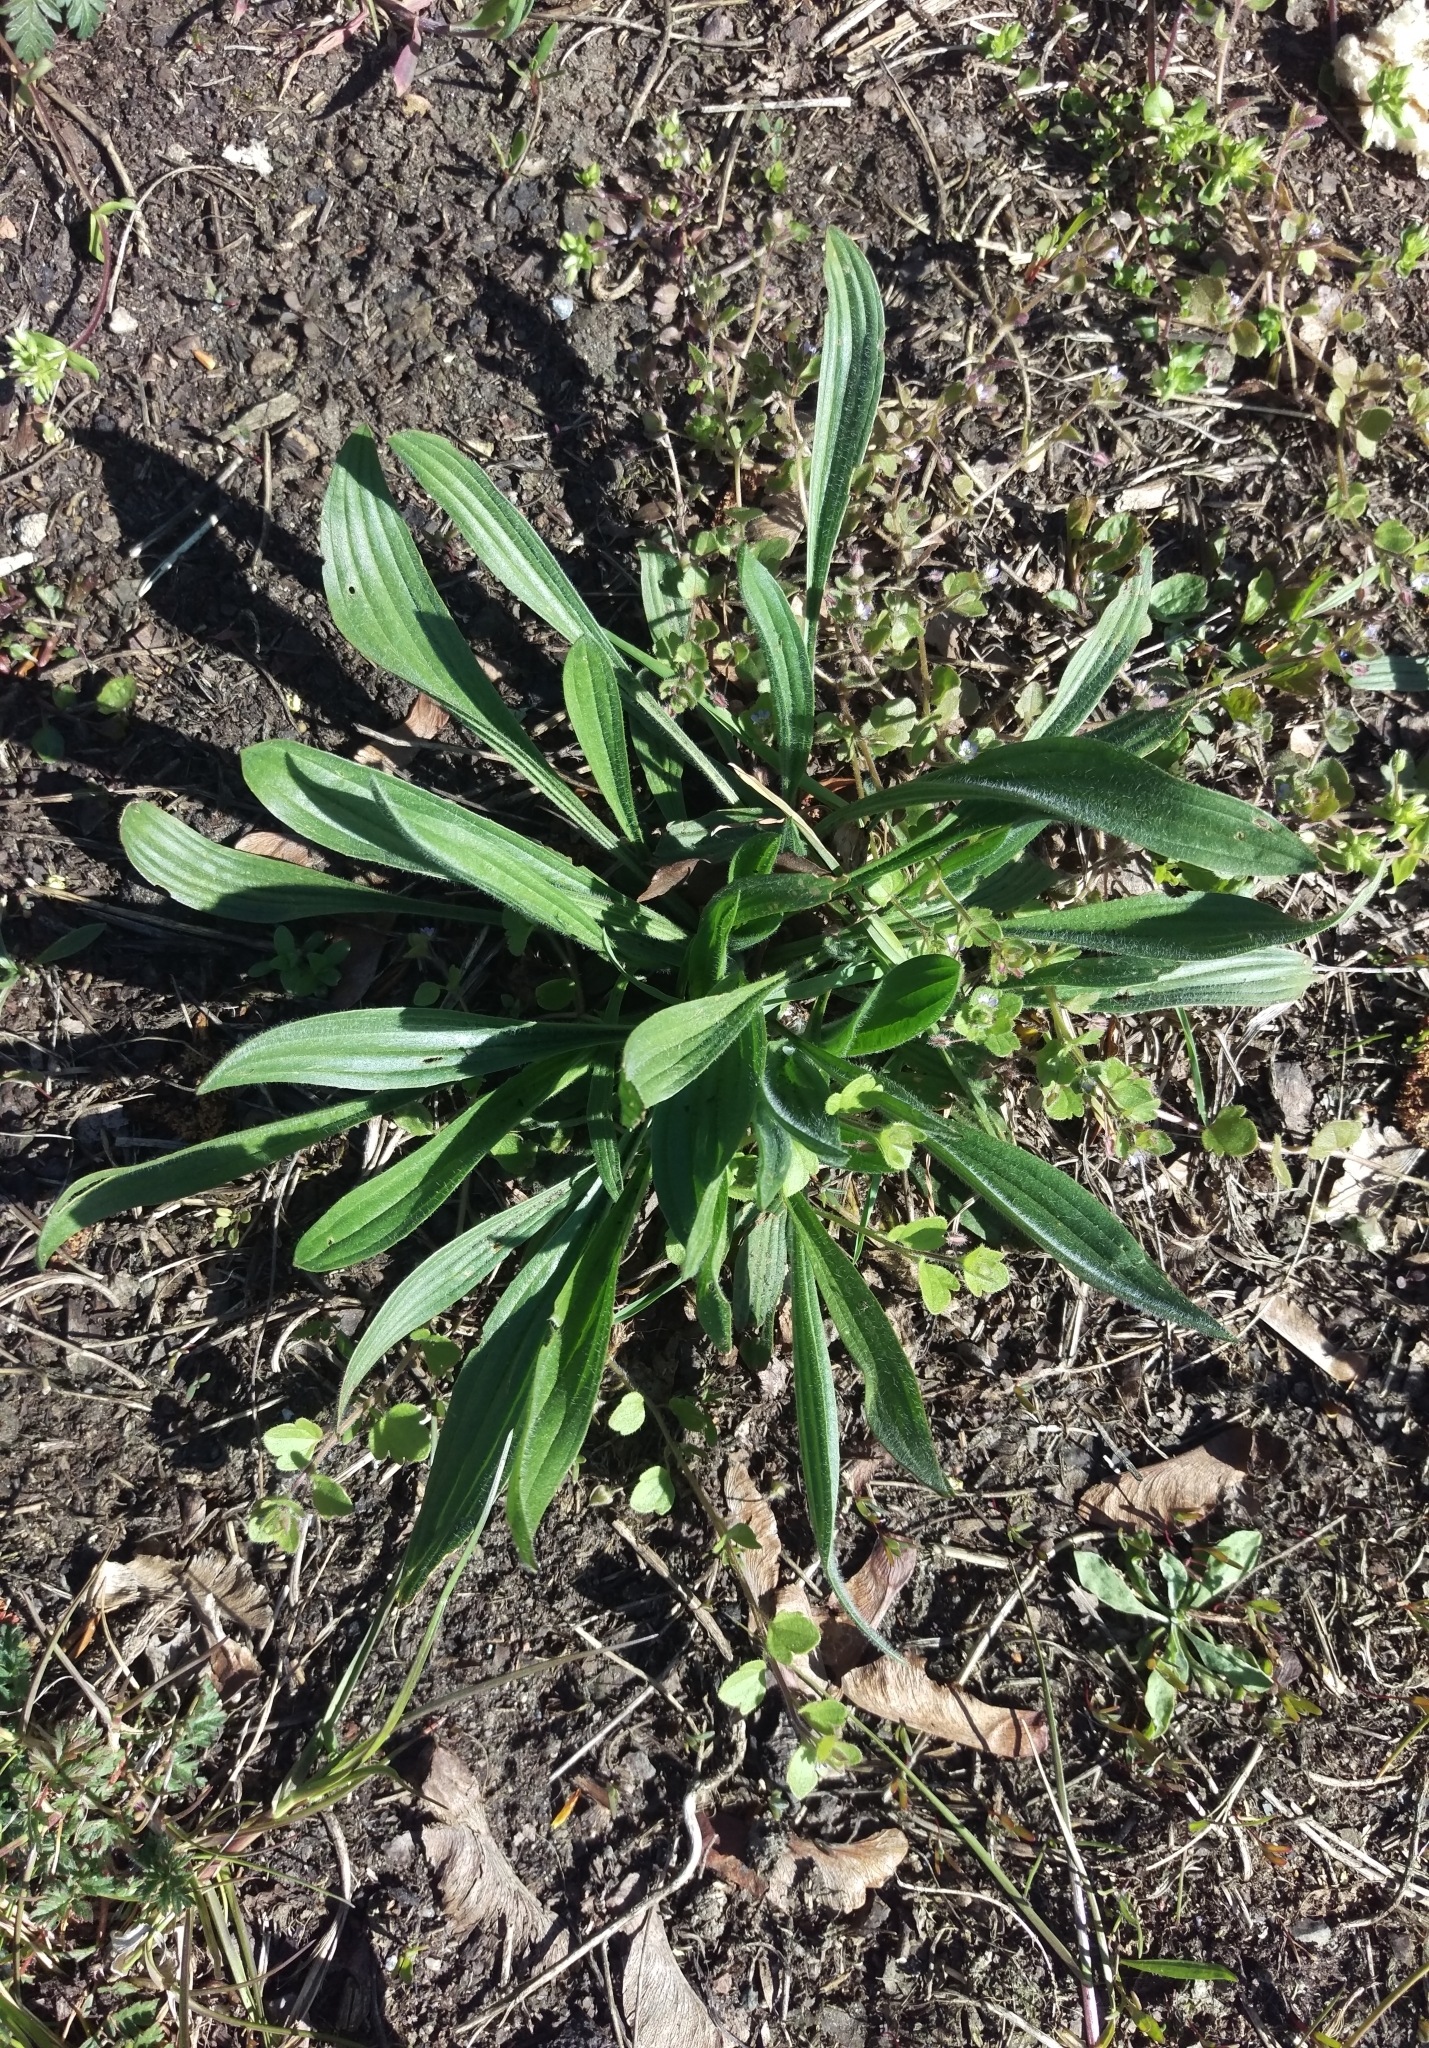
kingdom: Plantae
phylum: Tracheophyta
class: Magnoliopsida
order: Lamiales
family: Plantaginaceae
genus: Plantago
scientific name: Plantago lanceolata
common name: Ribwort plantain
